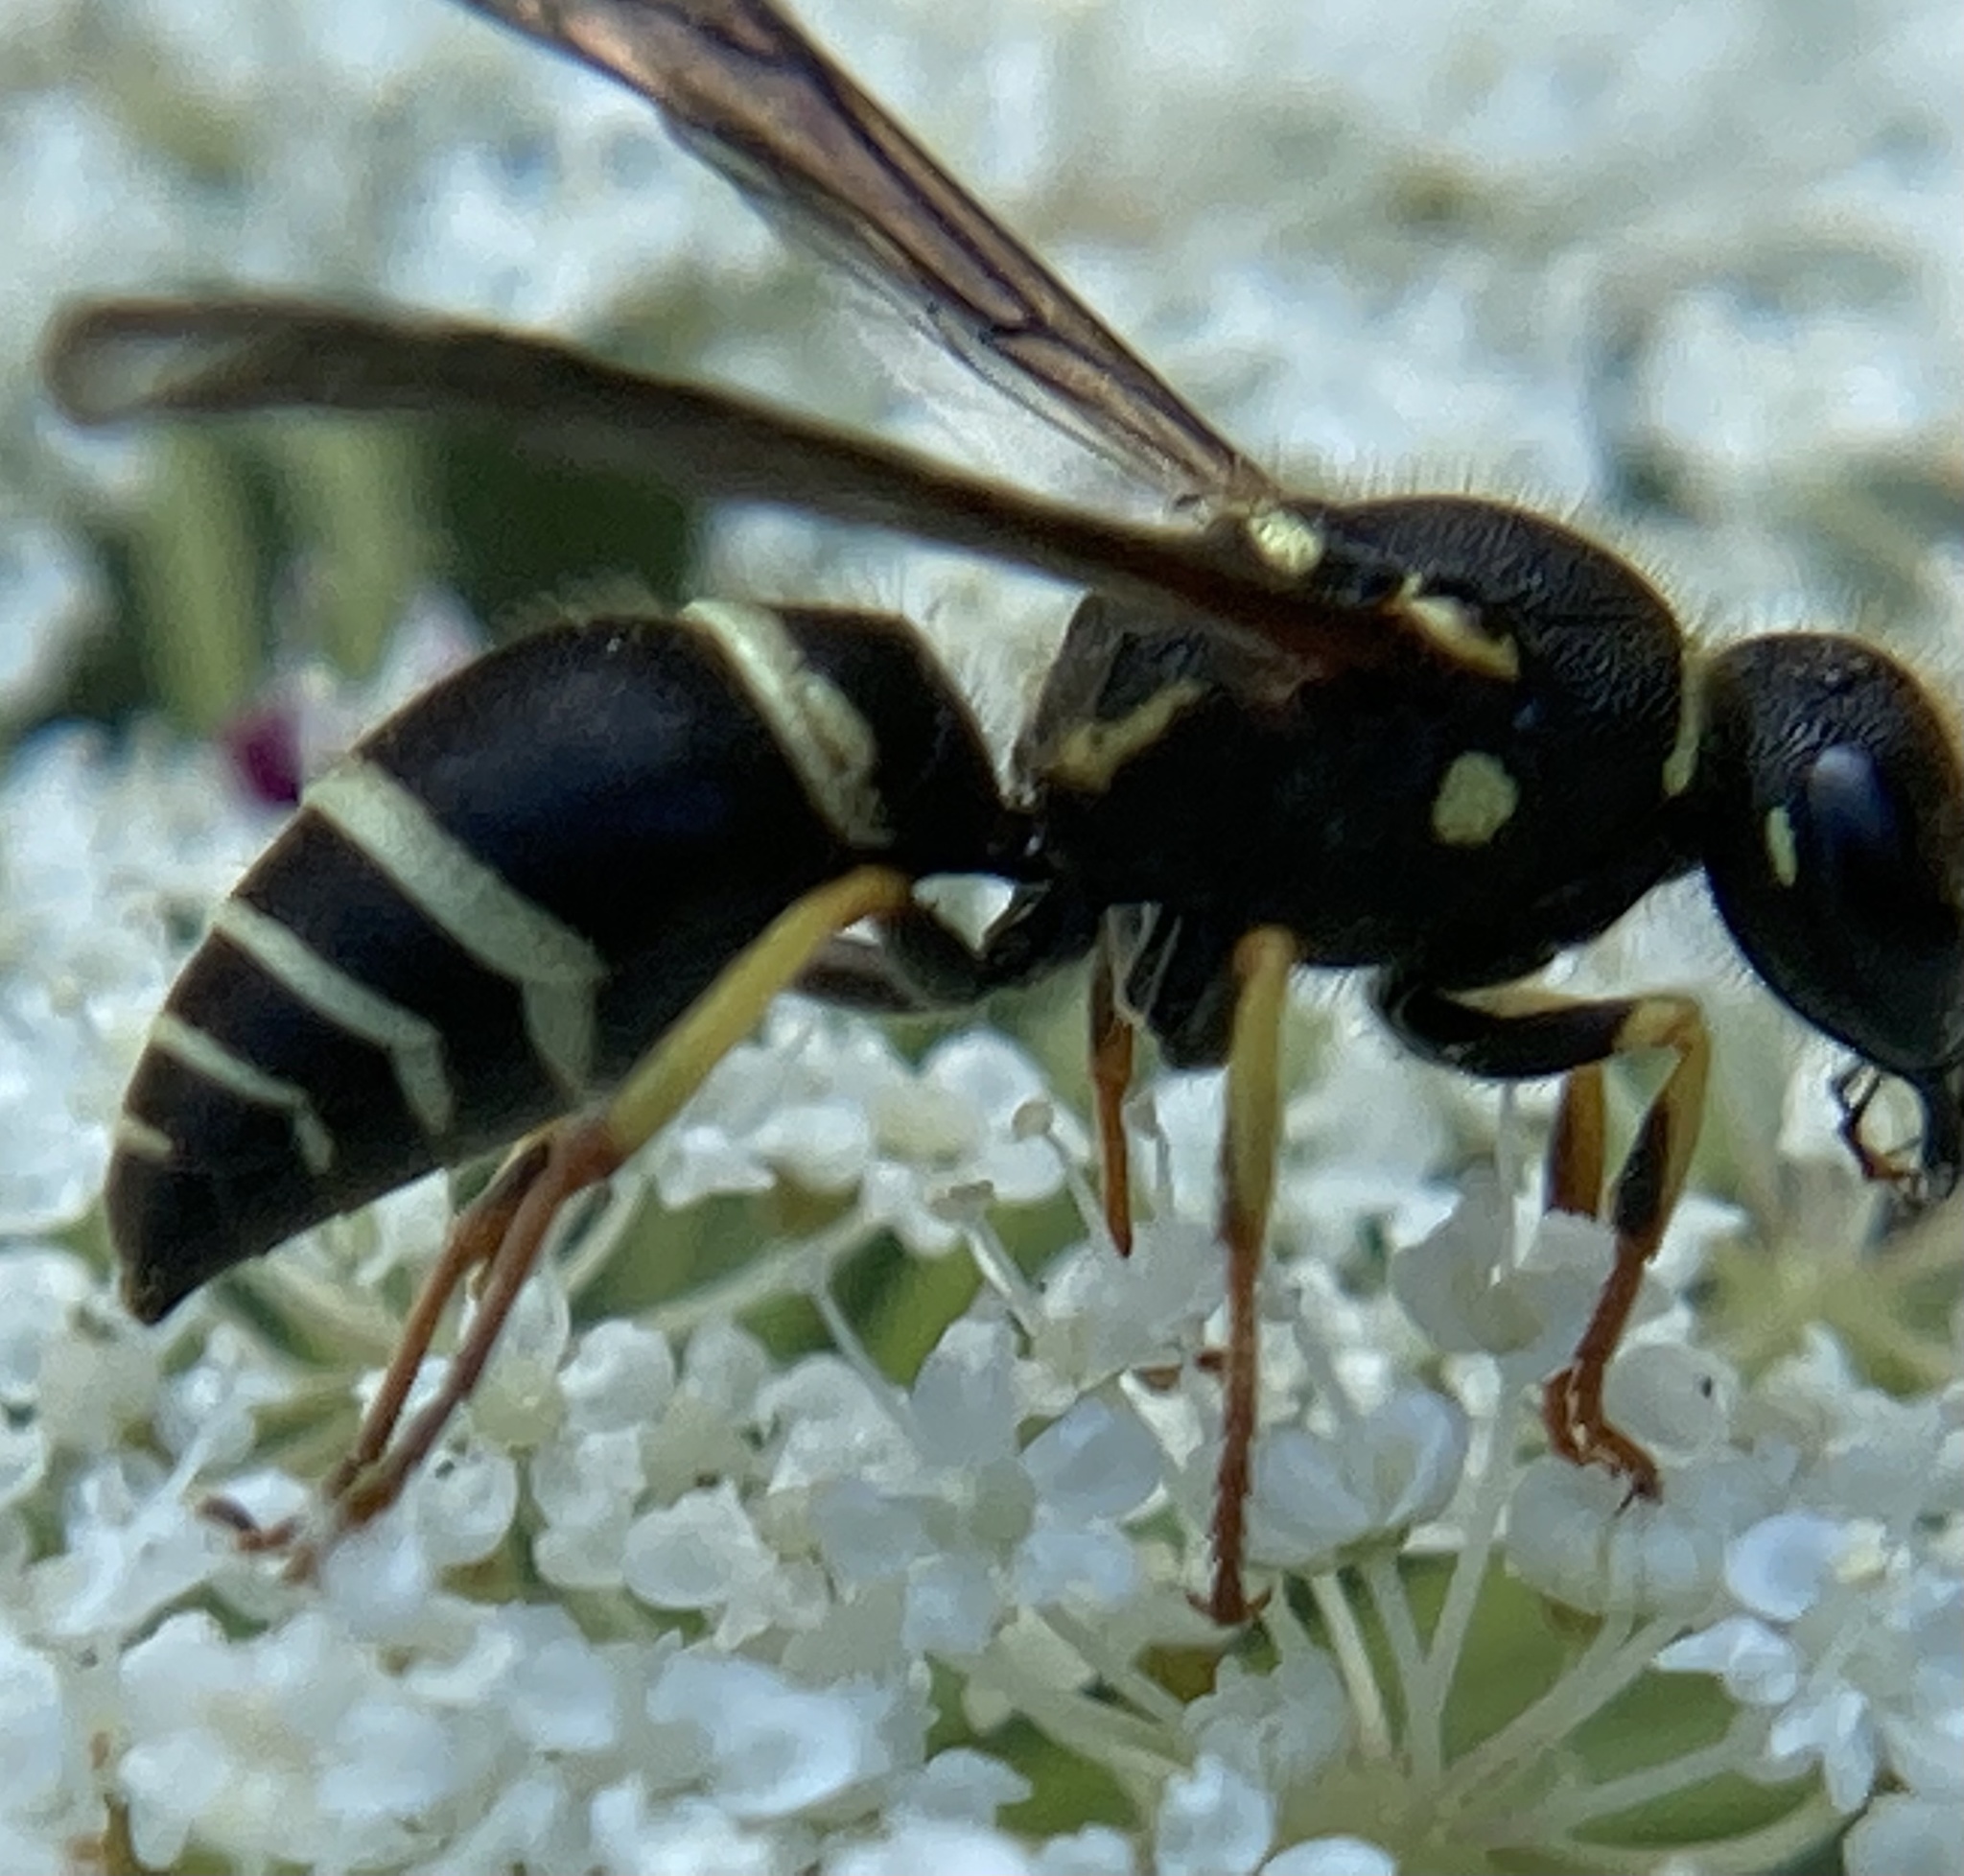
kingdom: Animalia
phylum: Arthropoda
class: Insecta
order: Hymenoptera
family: Vespidae
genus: Ancistrocerus
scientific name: Ancistrocerus catskill
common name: Vespid wasp
